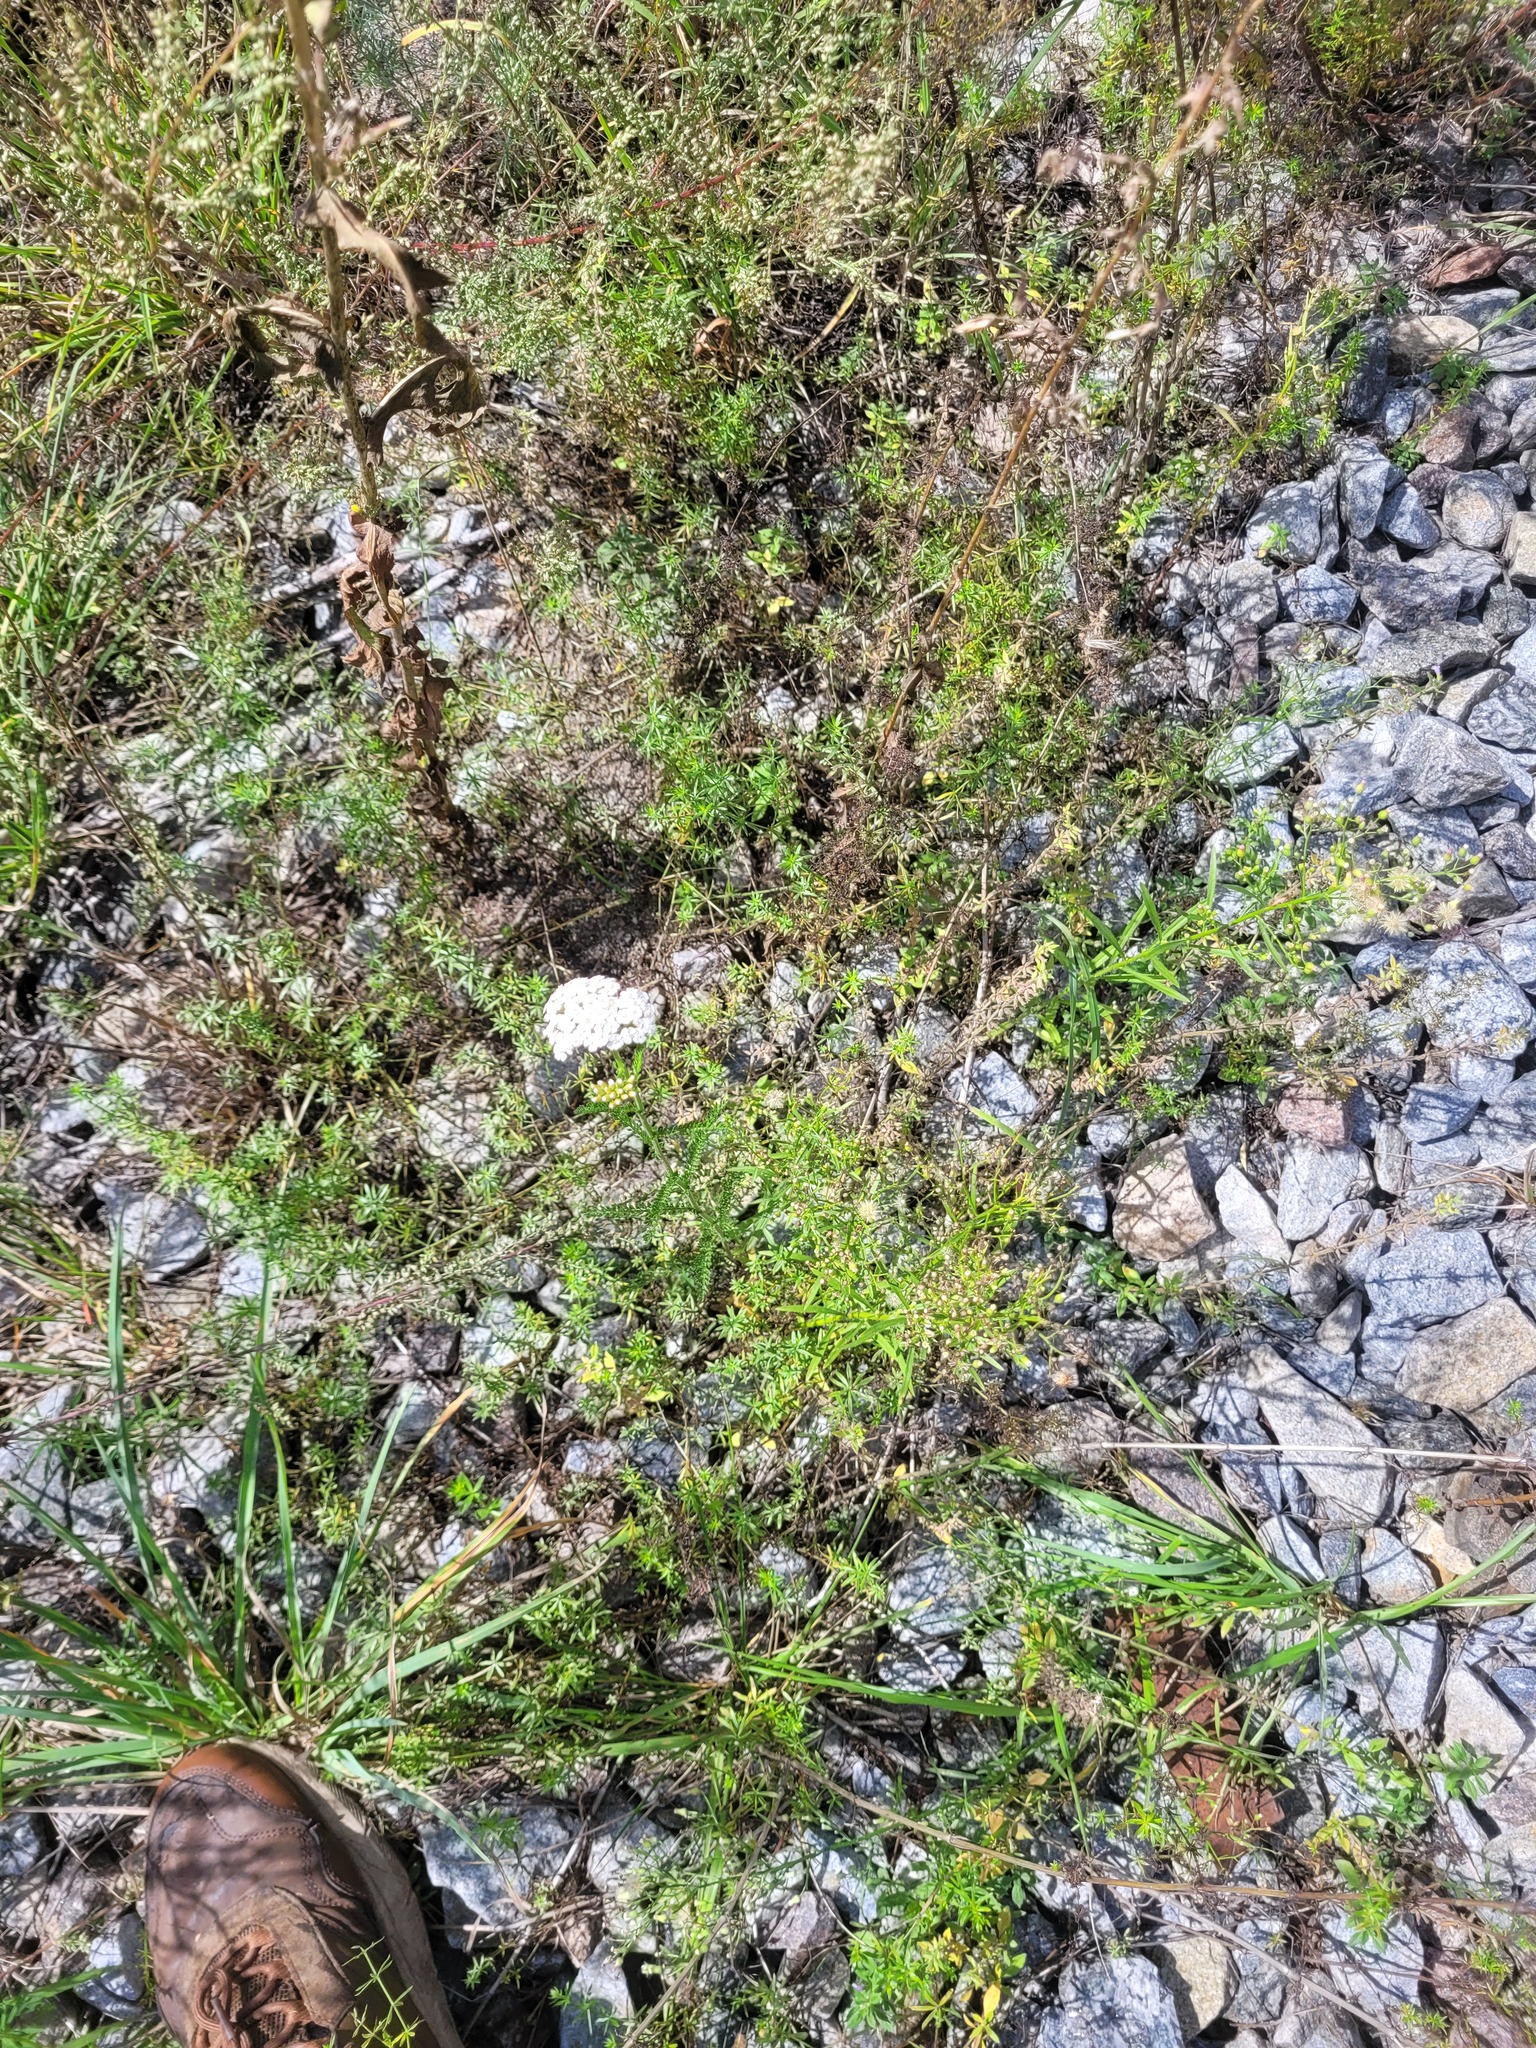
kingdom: Plantae
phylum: Tracheophyta
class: Magnoliopsida
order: Asterales
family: Asteraceae
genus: Achillea
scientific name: Achillea millefolium
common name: Yarrow
